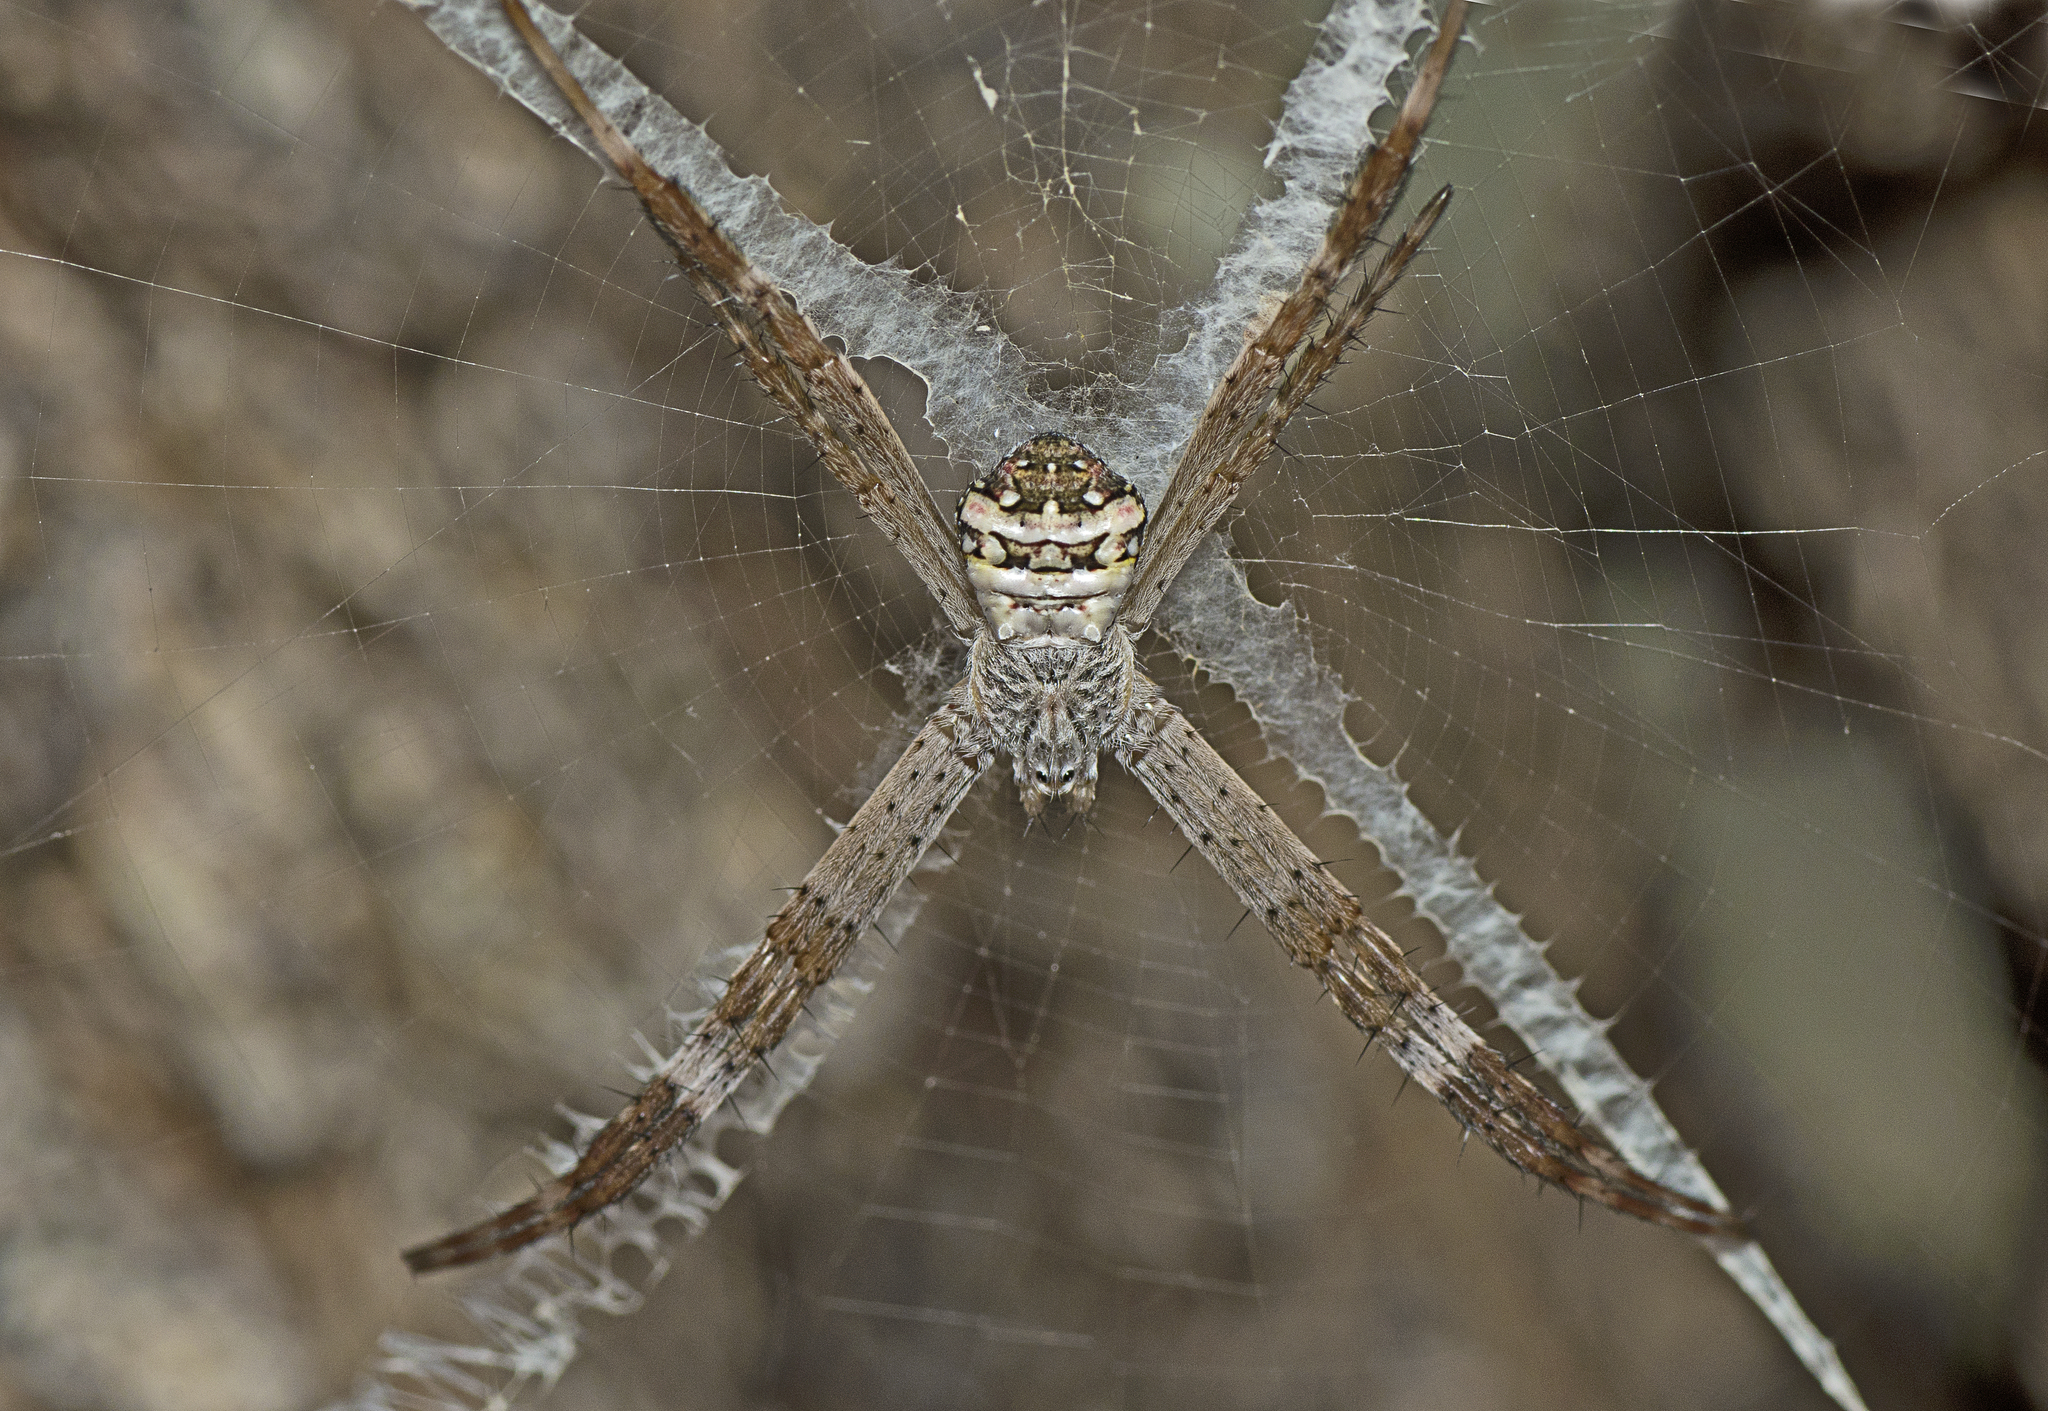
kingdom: Animalia
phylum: Arthropoda
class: Arachnida
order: Araneae
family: Araneidae
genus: Argiope
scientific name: Argiope aetherea
